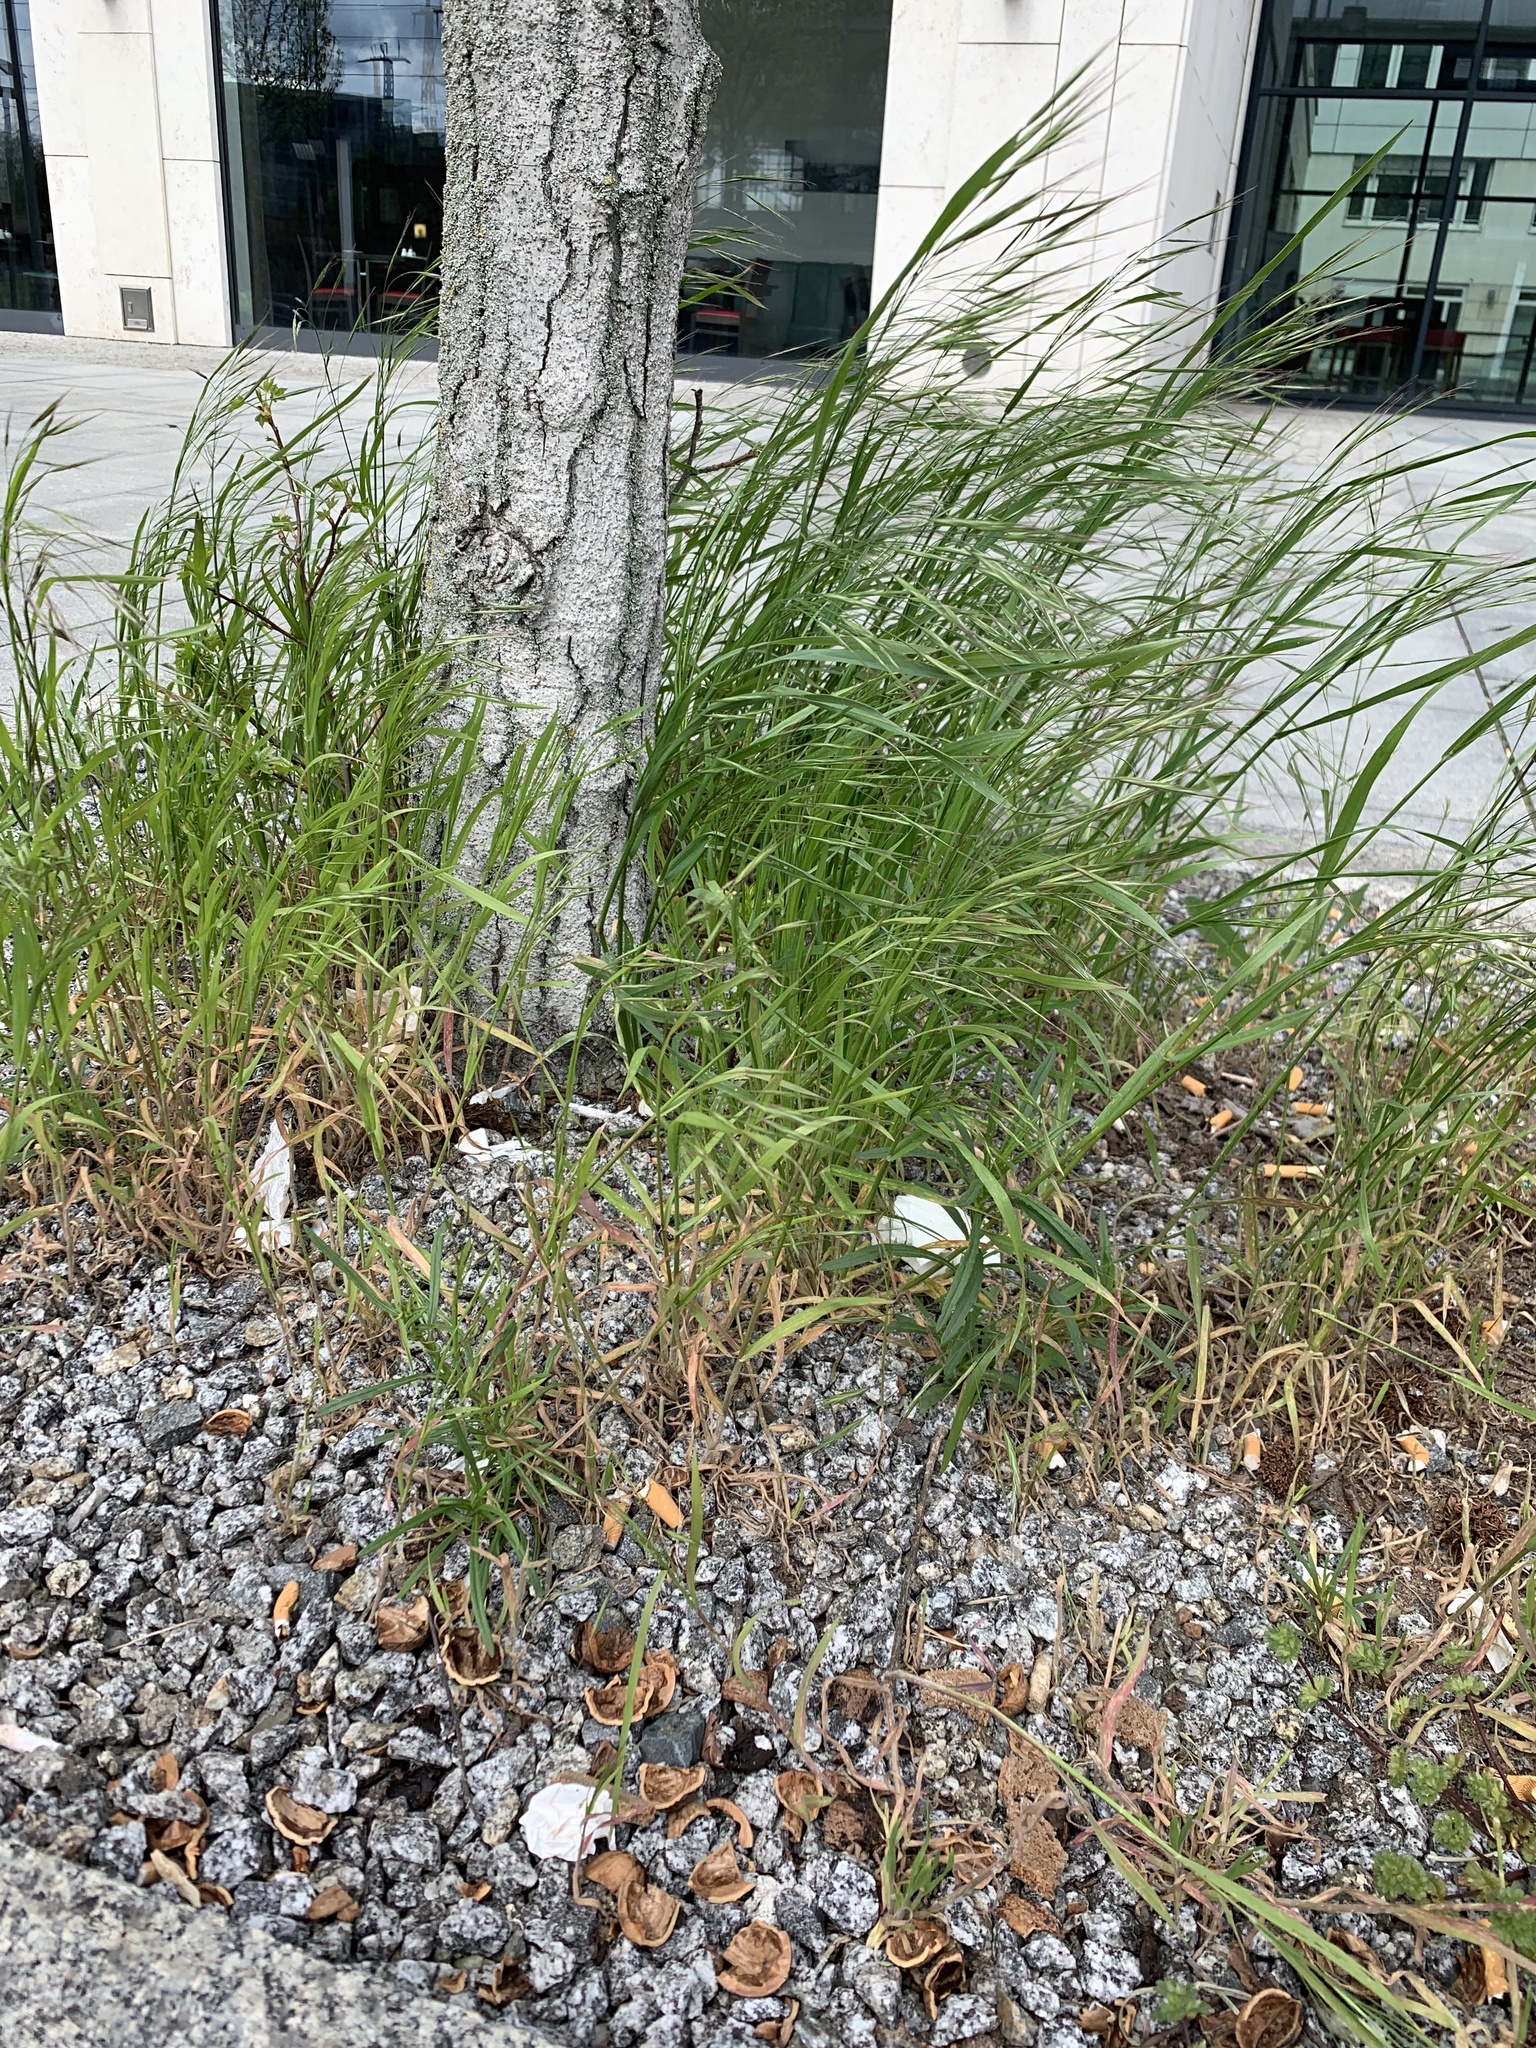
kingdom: Plantae
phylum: Tracheophyta
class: Liliopsida
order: Poales
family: Poaceae
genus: Bromus
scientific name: Bromus sterilis
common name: Poverty brome
